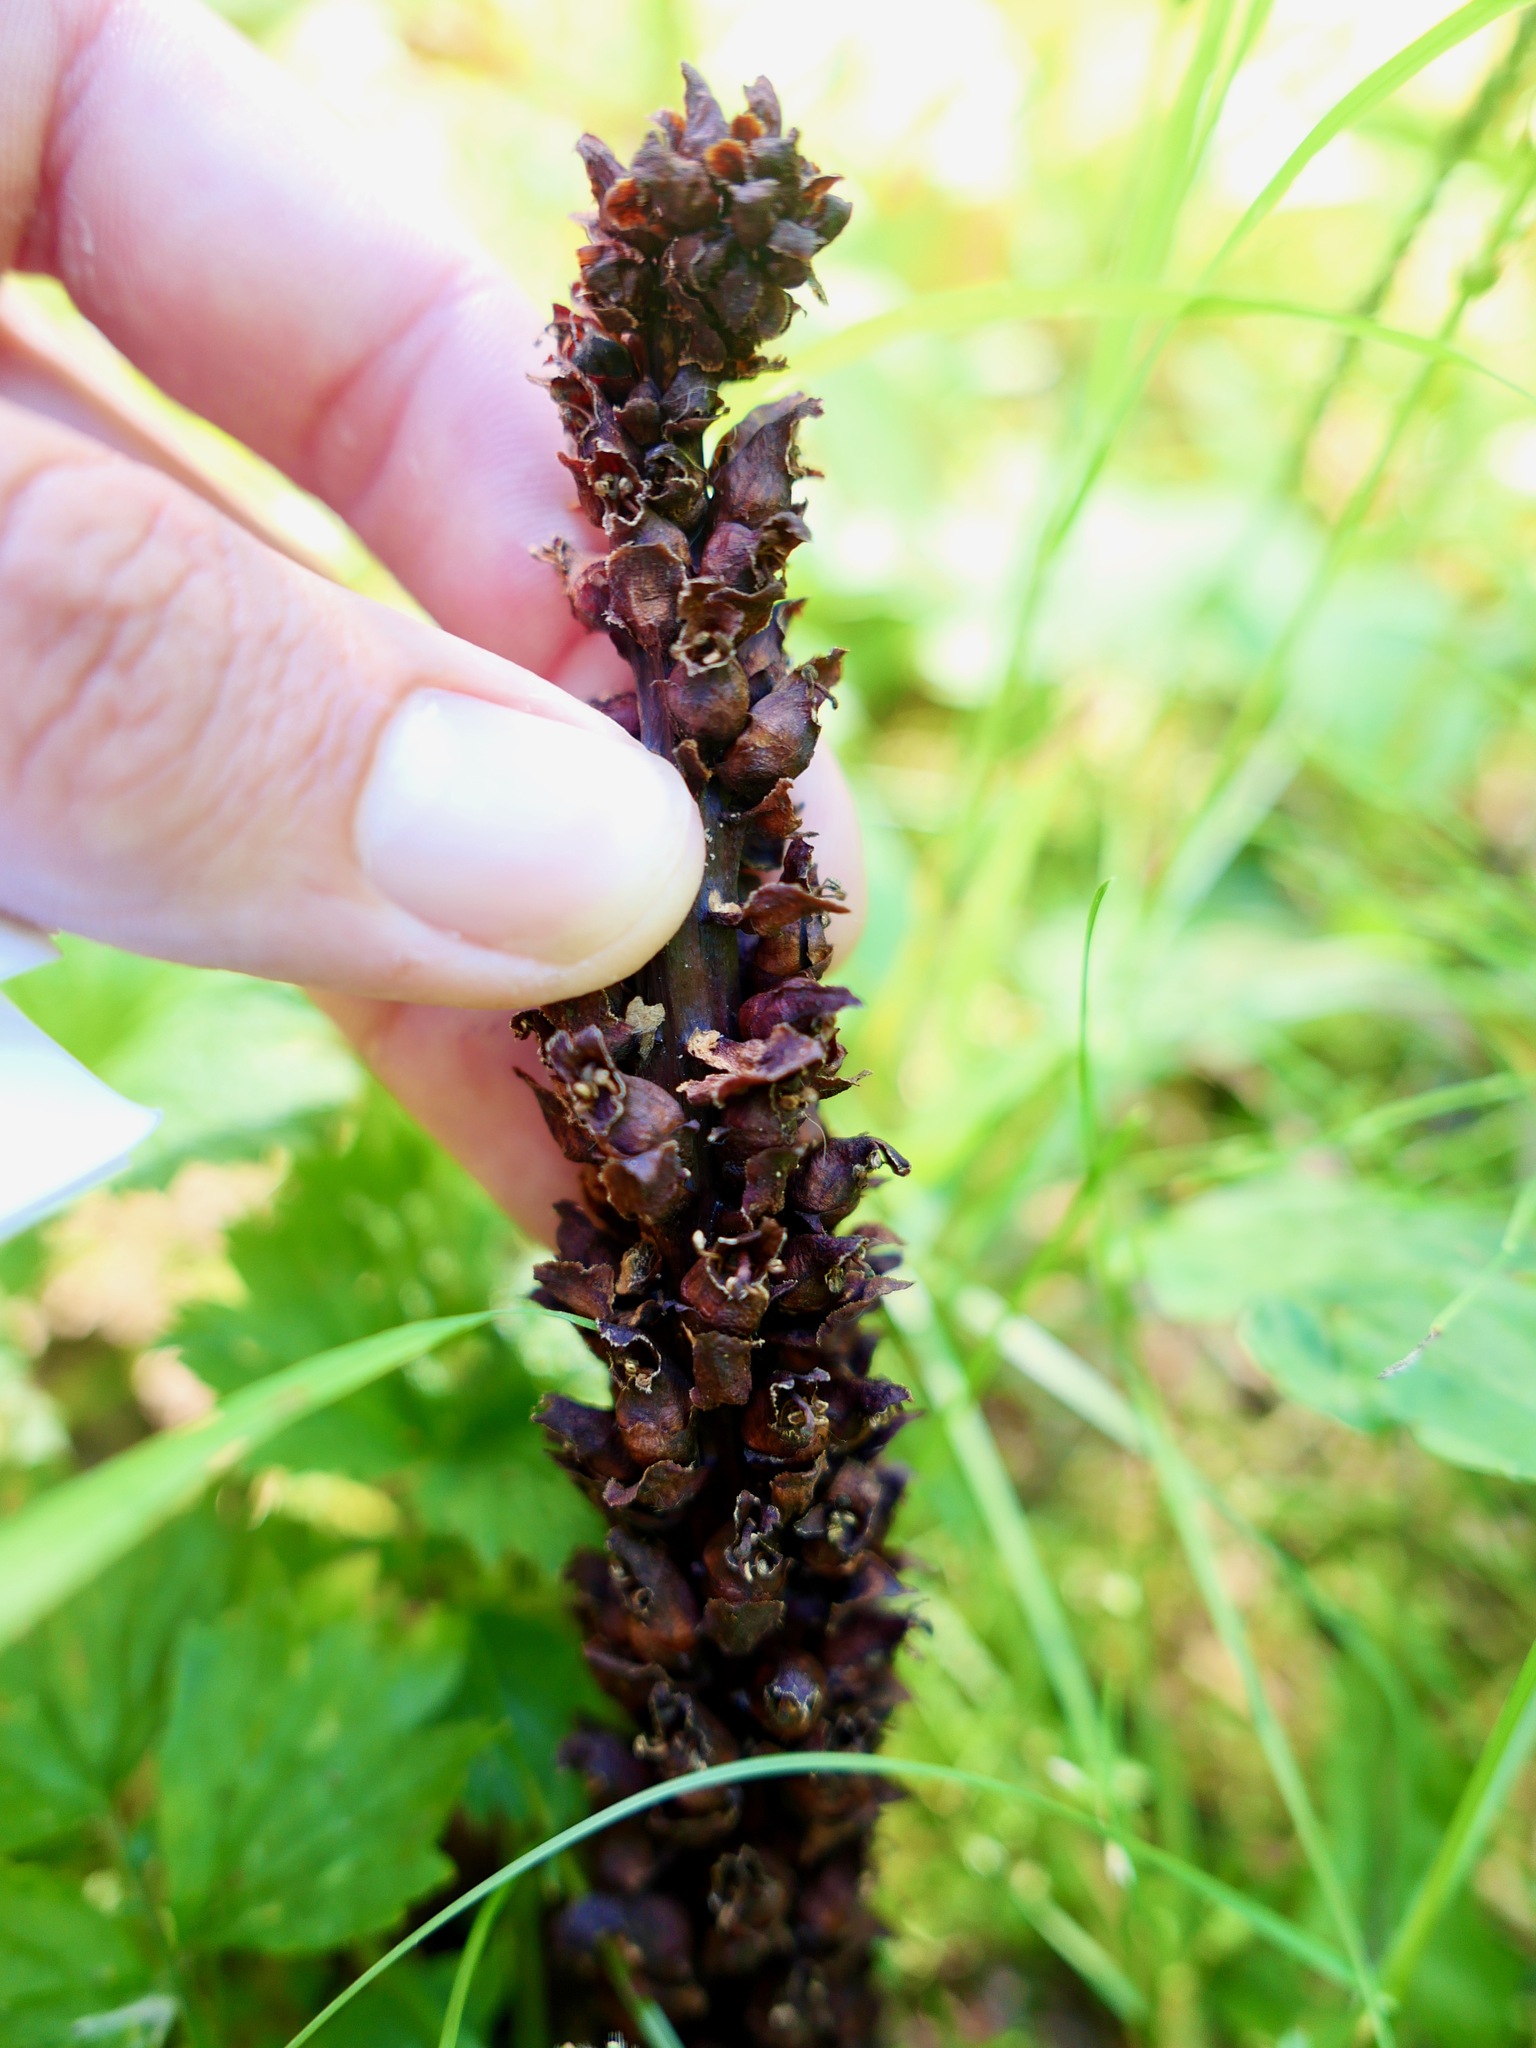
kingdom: Plantae
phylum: Tracheophyta
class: Magnoliopsida
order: Lamiales
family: Orobanchaceae
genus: Boschniakia
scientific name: Boschniakia rossica
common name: Poque
